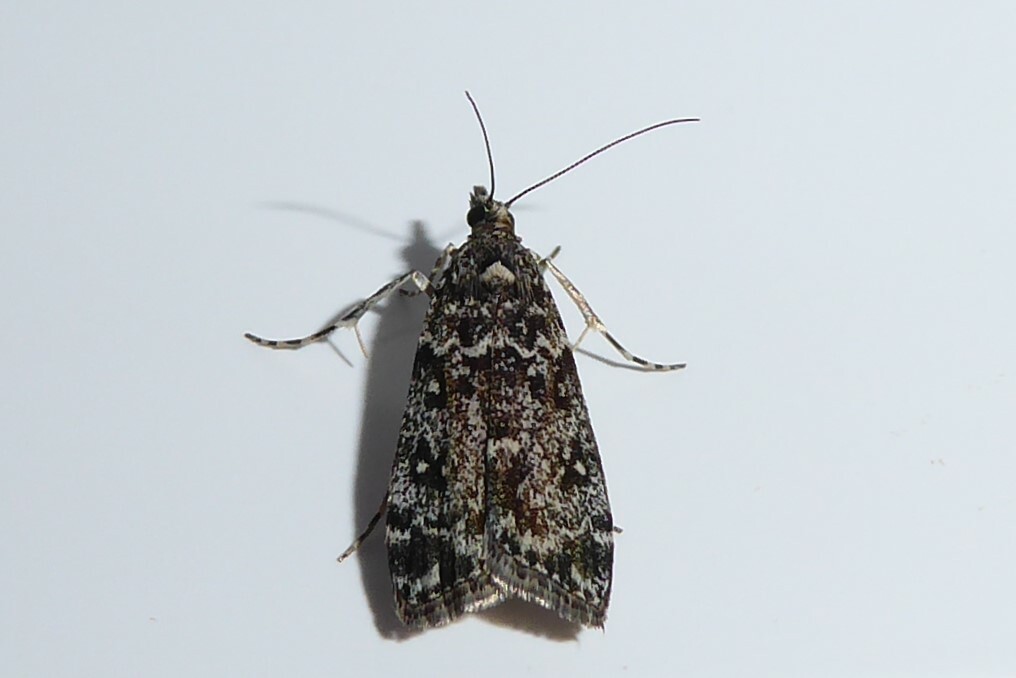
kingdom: Animalia
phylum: Arthropoda
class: Insecta
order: Lepidoptera
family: Crambidae
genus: Eudonia
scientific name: Eudonia philerga
